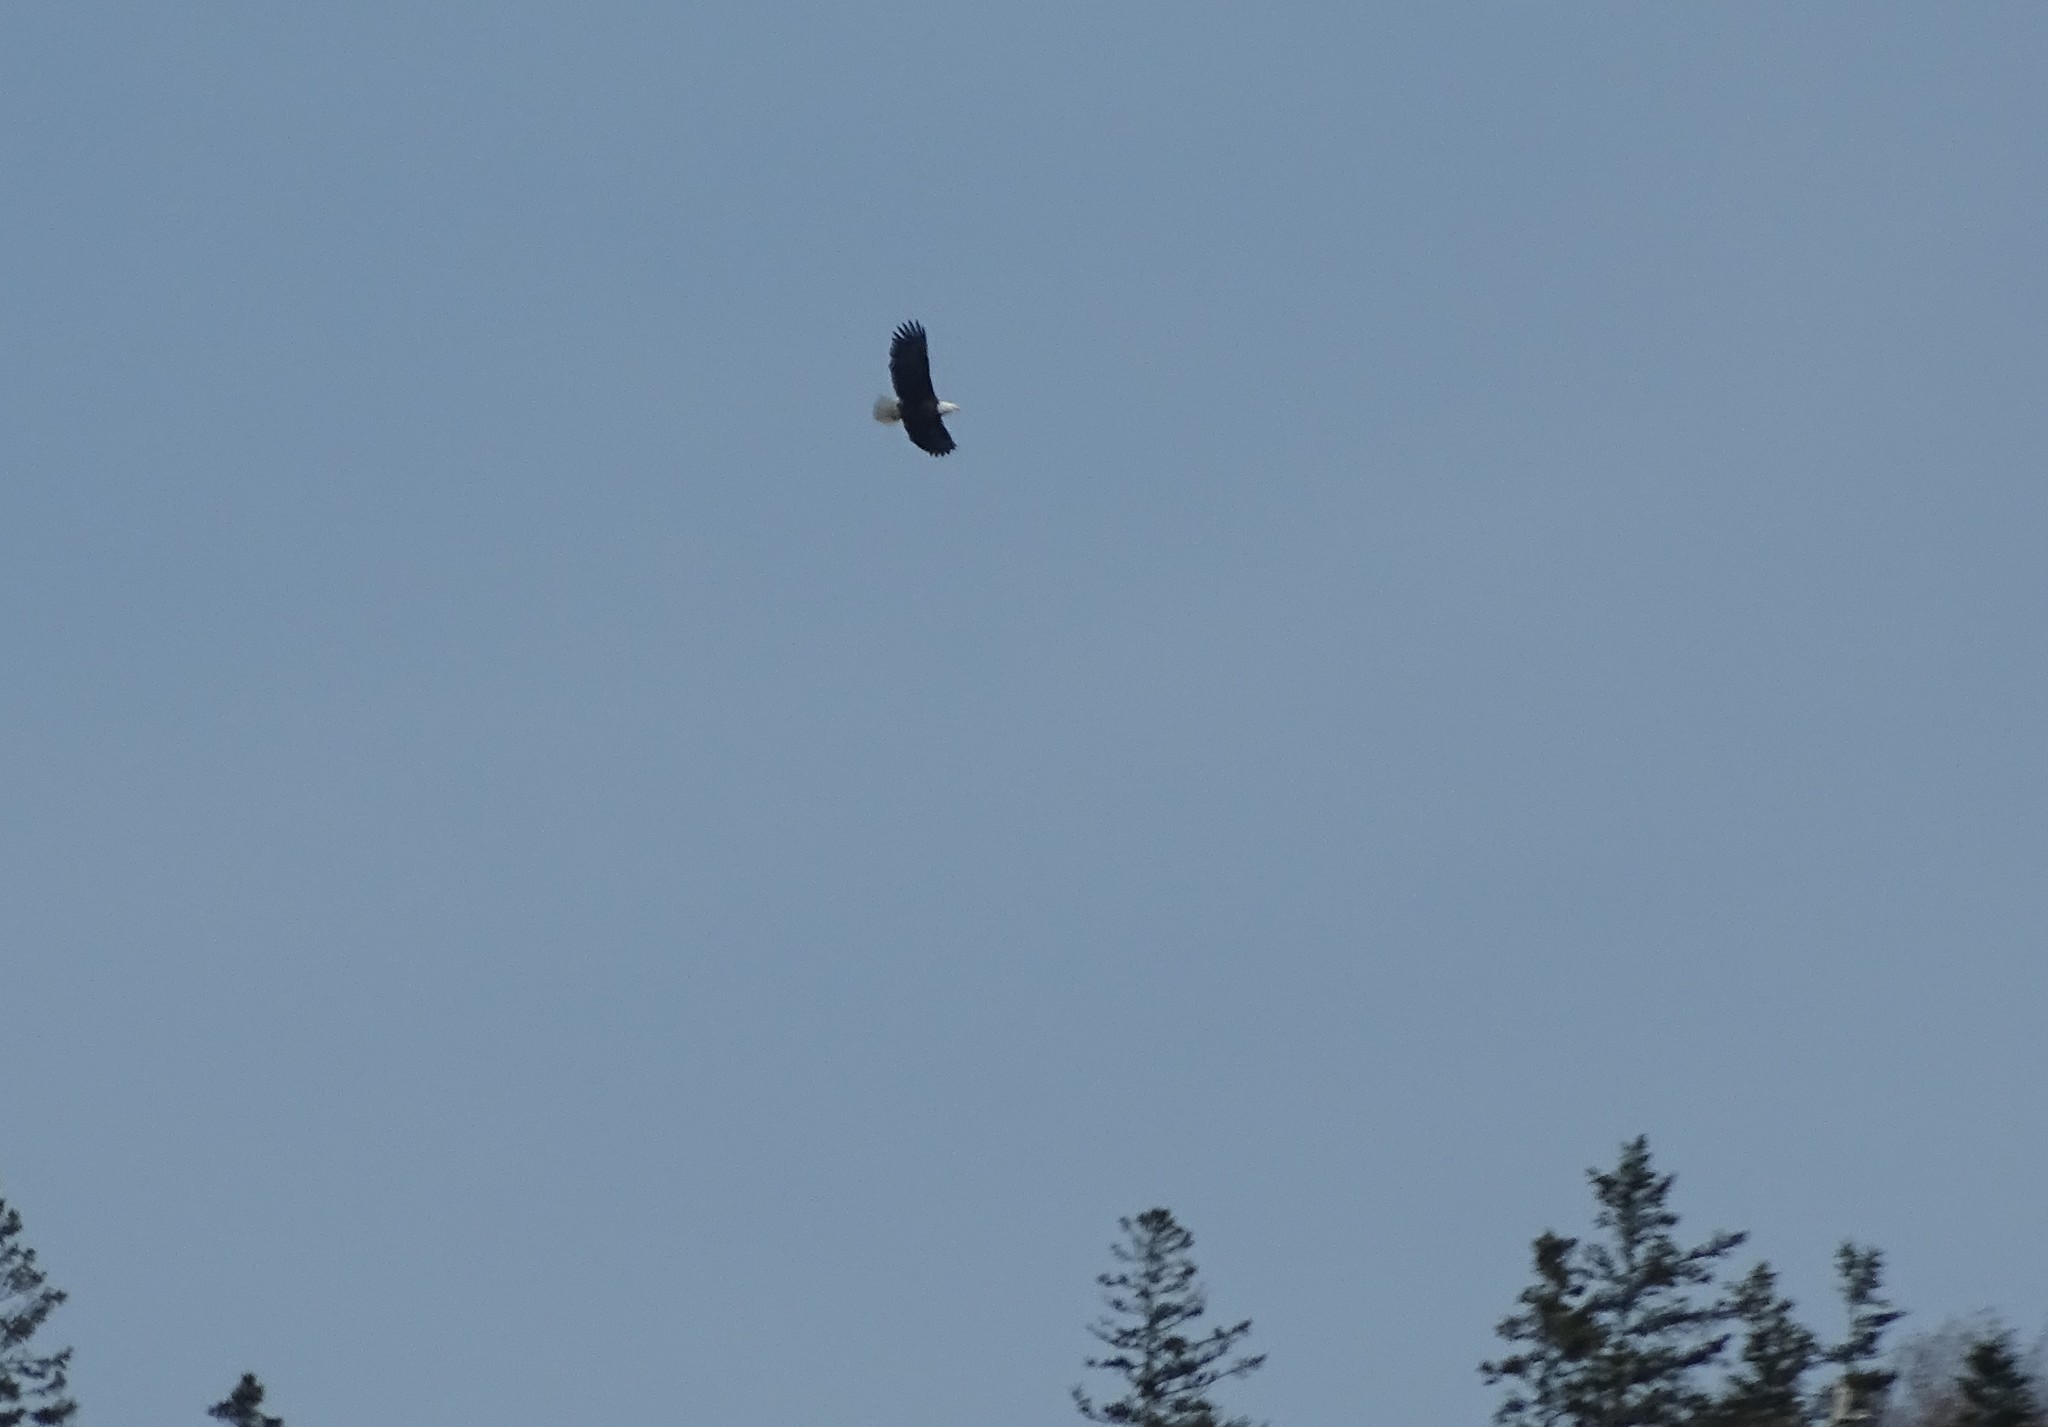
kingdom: Animalia
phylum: Chordata
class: Aves
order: Accipitriformes
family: Accipitridae
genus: Haliaeetus
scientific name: Haliaeetus leucocephalus
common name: Bald eagle
